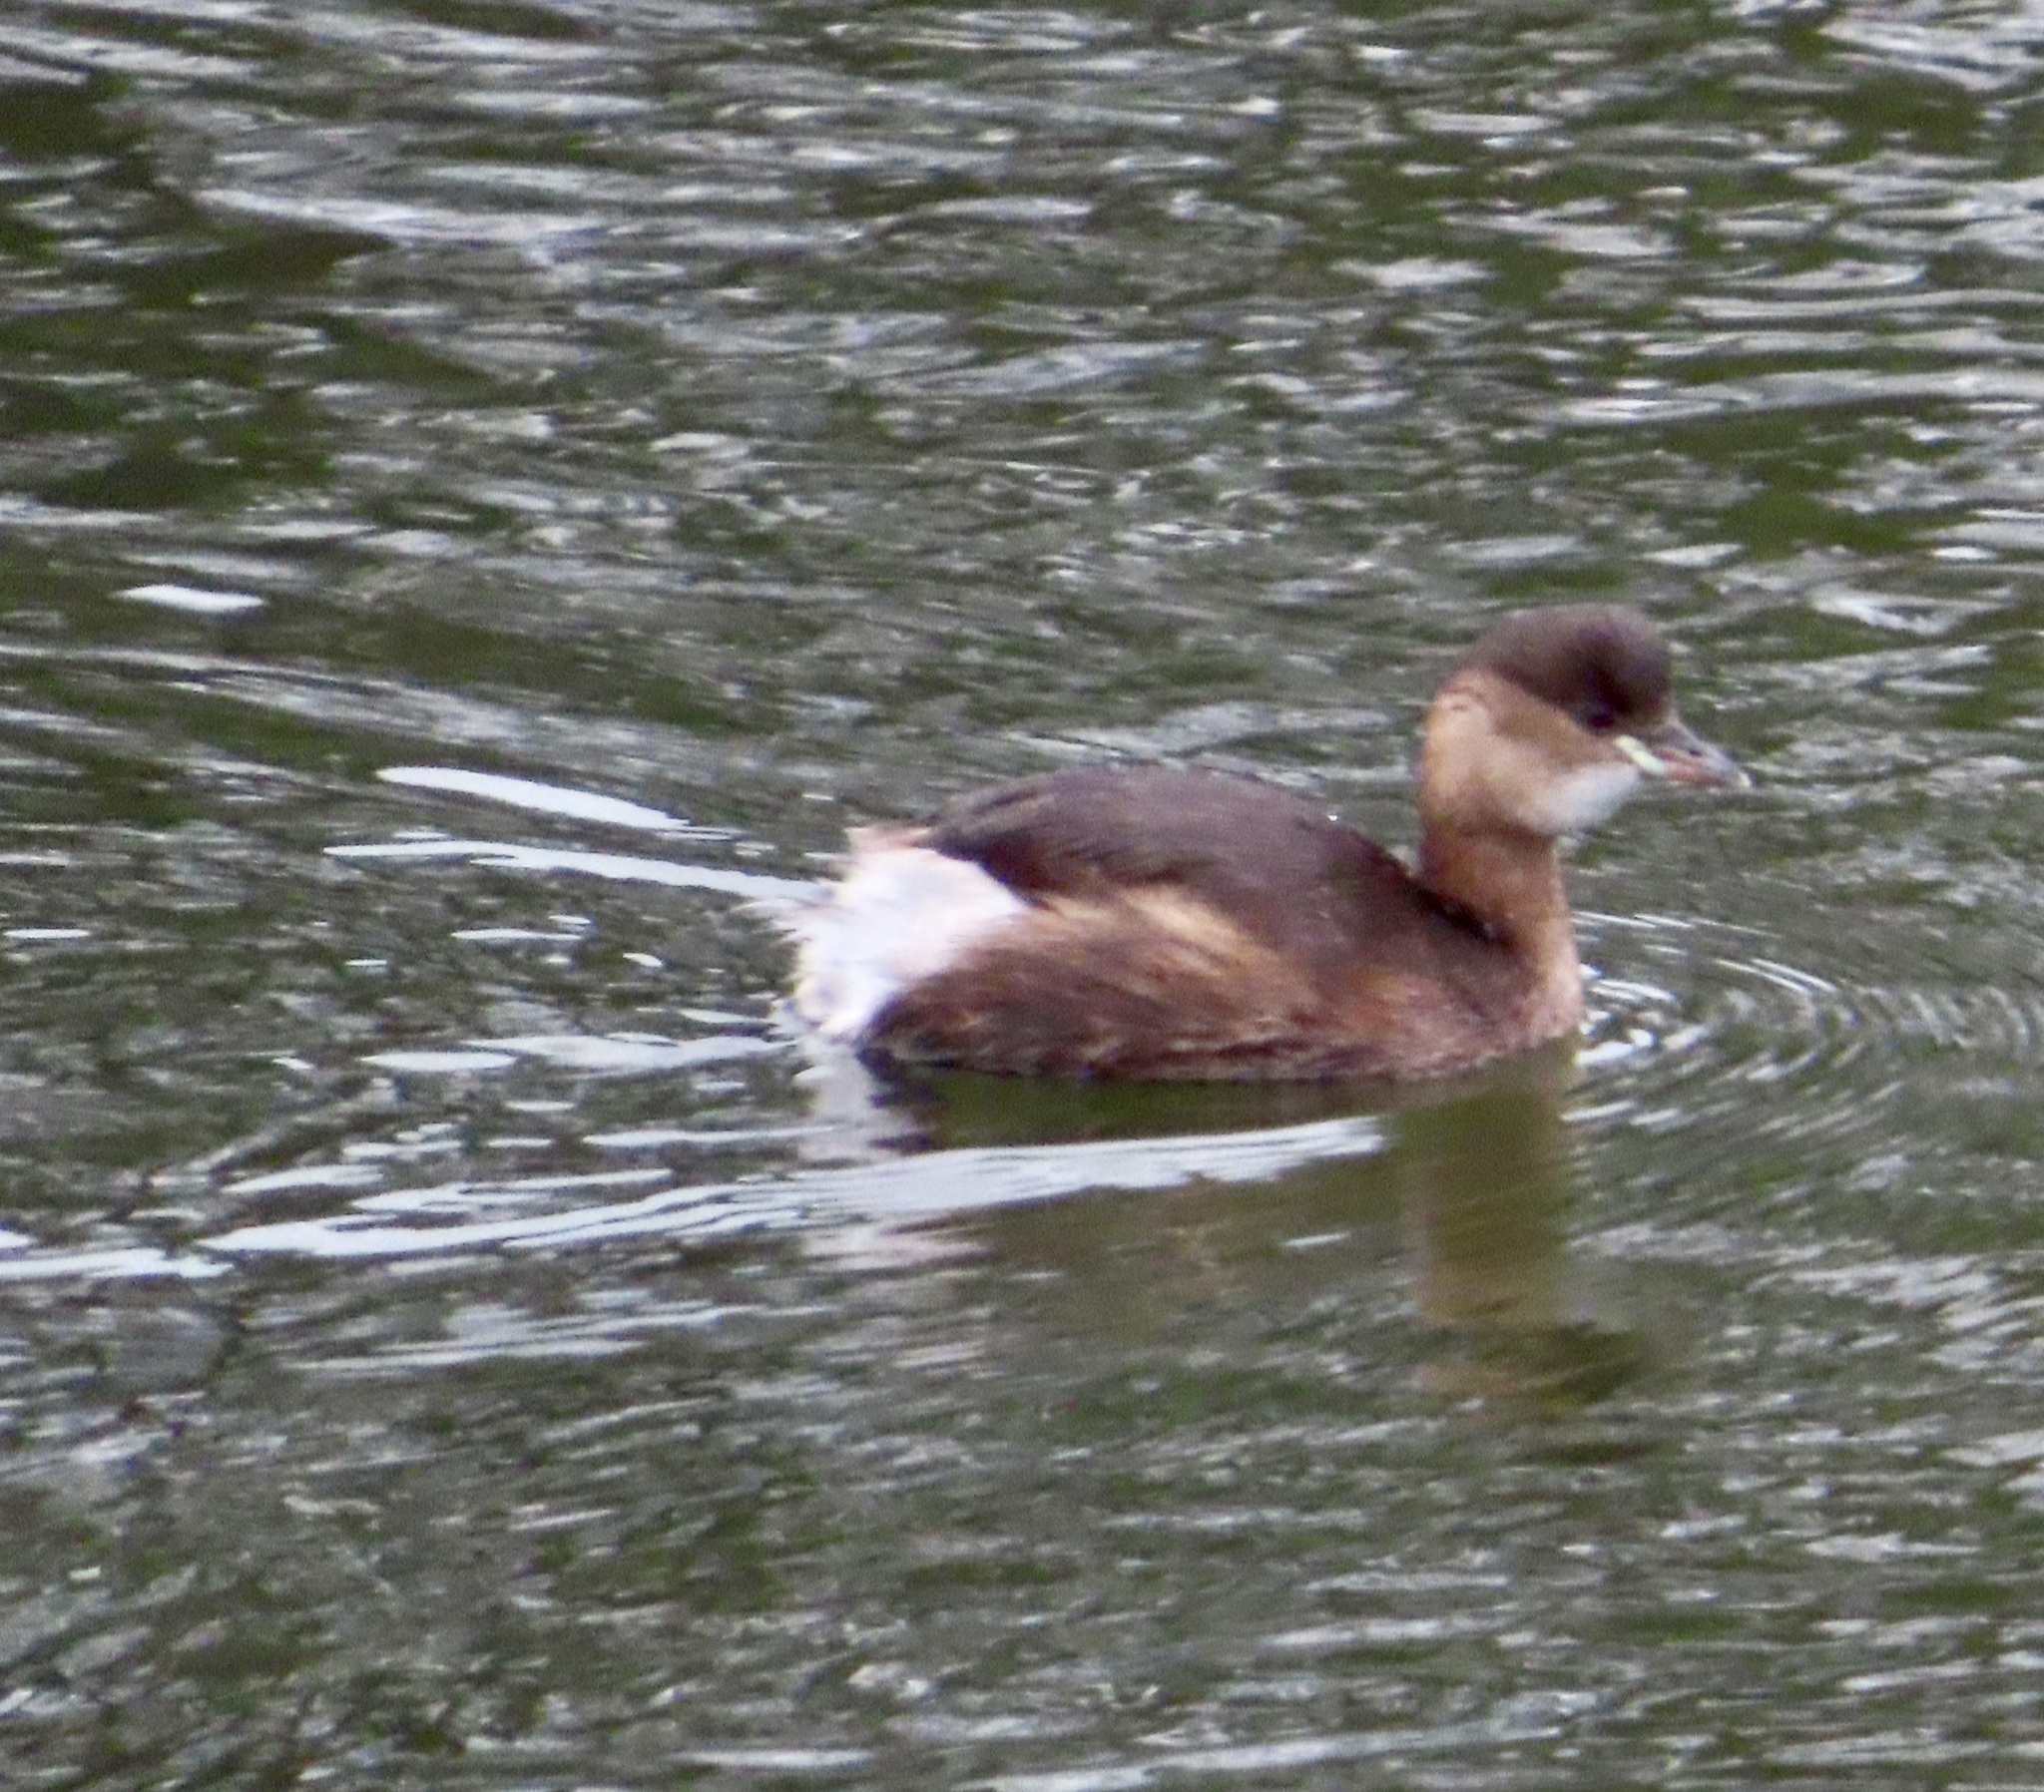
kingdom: Animalia
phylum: Chordata
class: Aves
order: Podicipediformes
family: Podicipedidae
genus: Tachybaptus
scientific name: Tachybaptus ruficollis
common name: Little grebe
